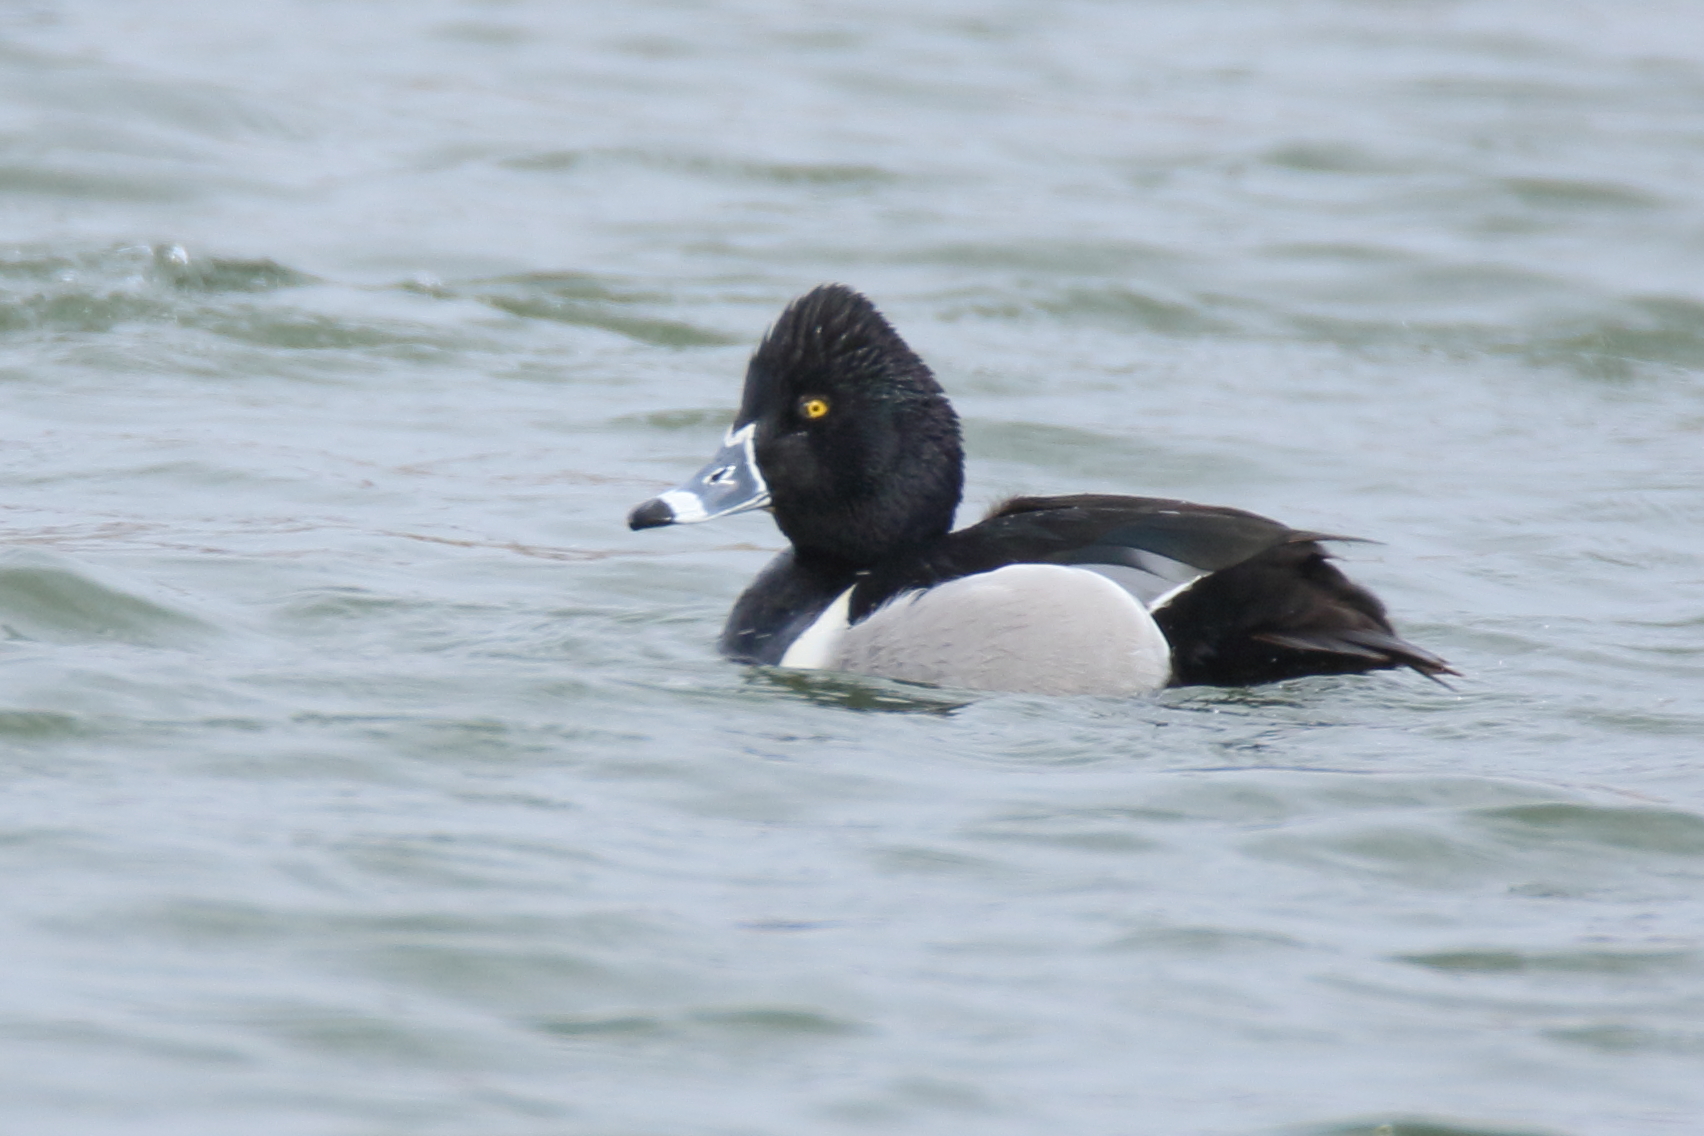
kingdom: Animalia
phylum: Chordata
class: Aves
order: Anseriformes
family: Anatidae
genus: Aythya
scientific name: Aythya collaris
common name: Ring-necked duck
